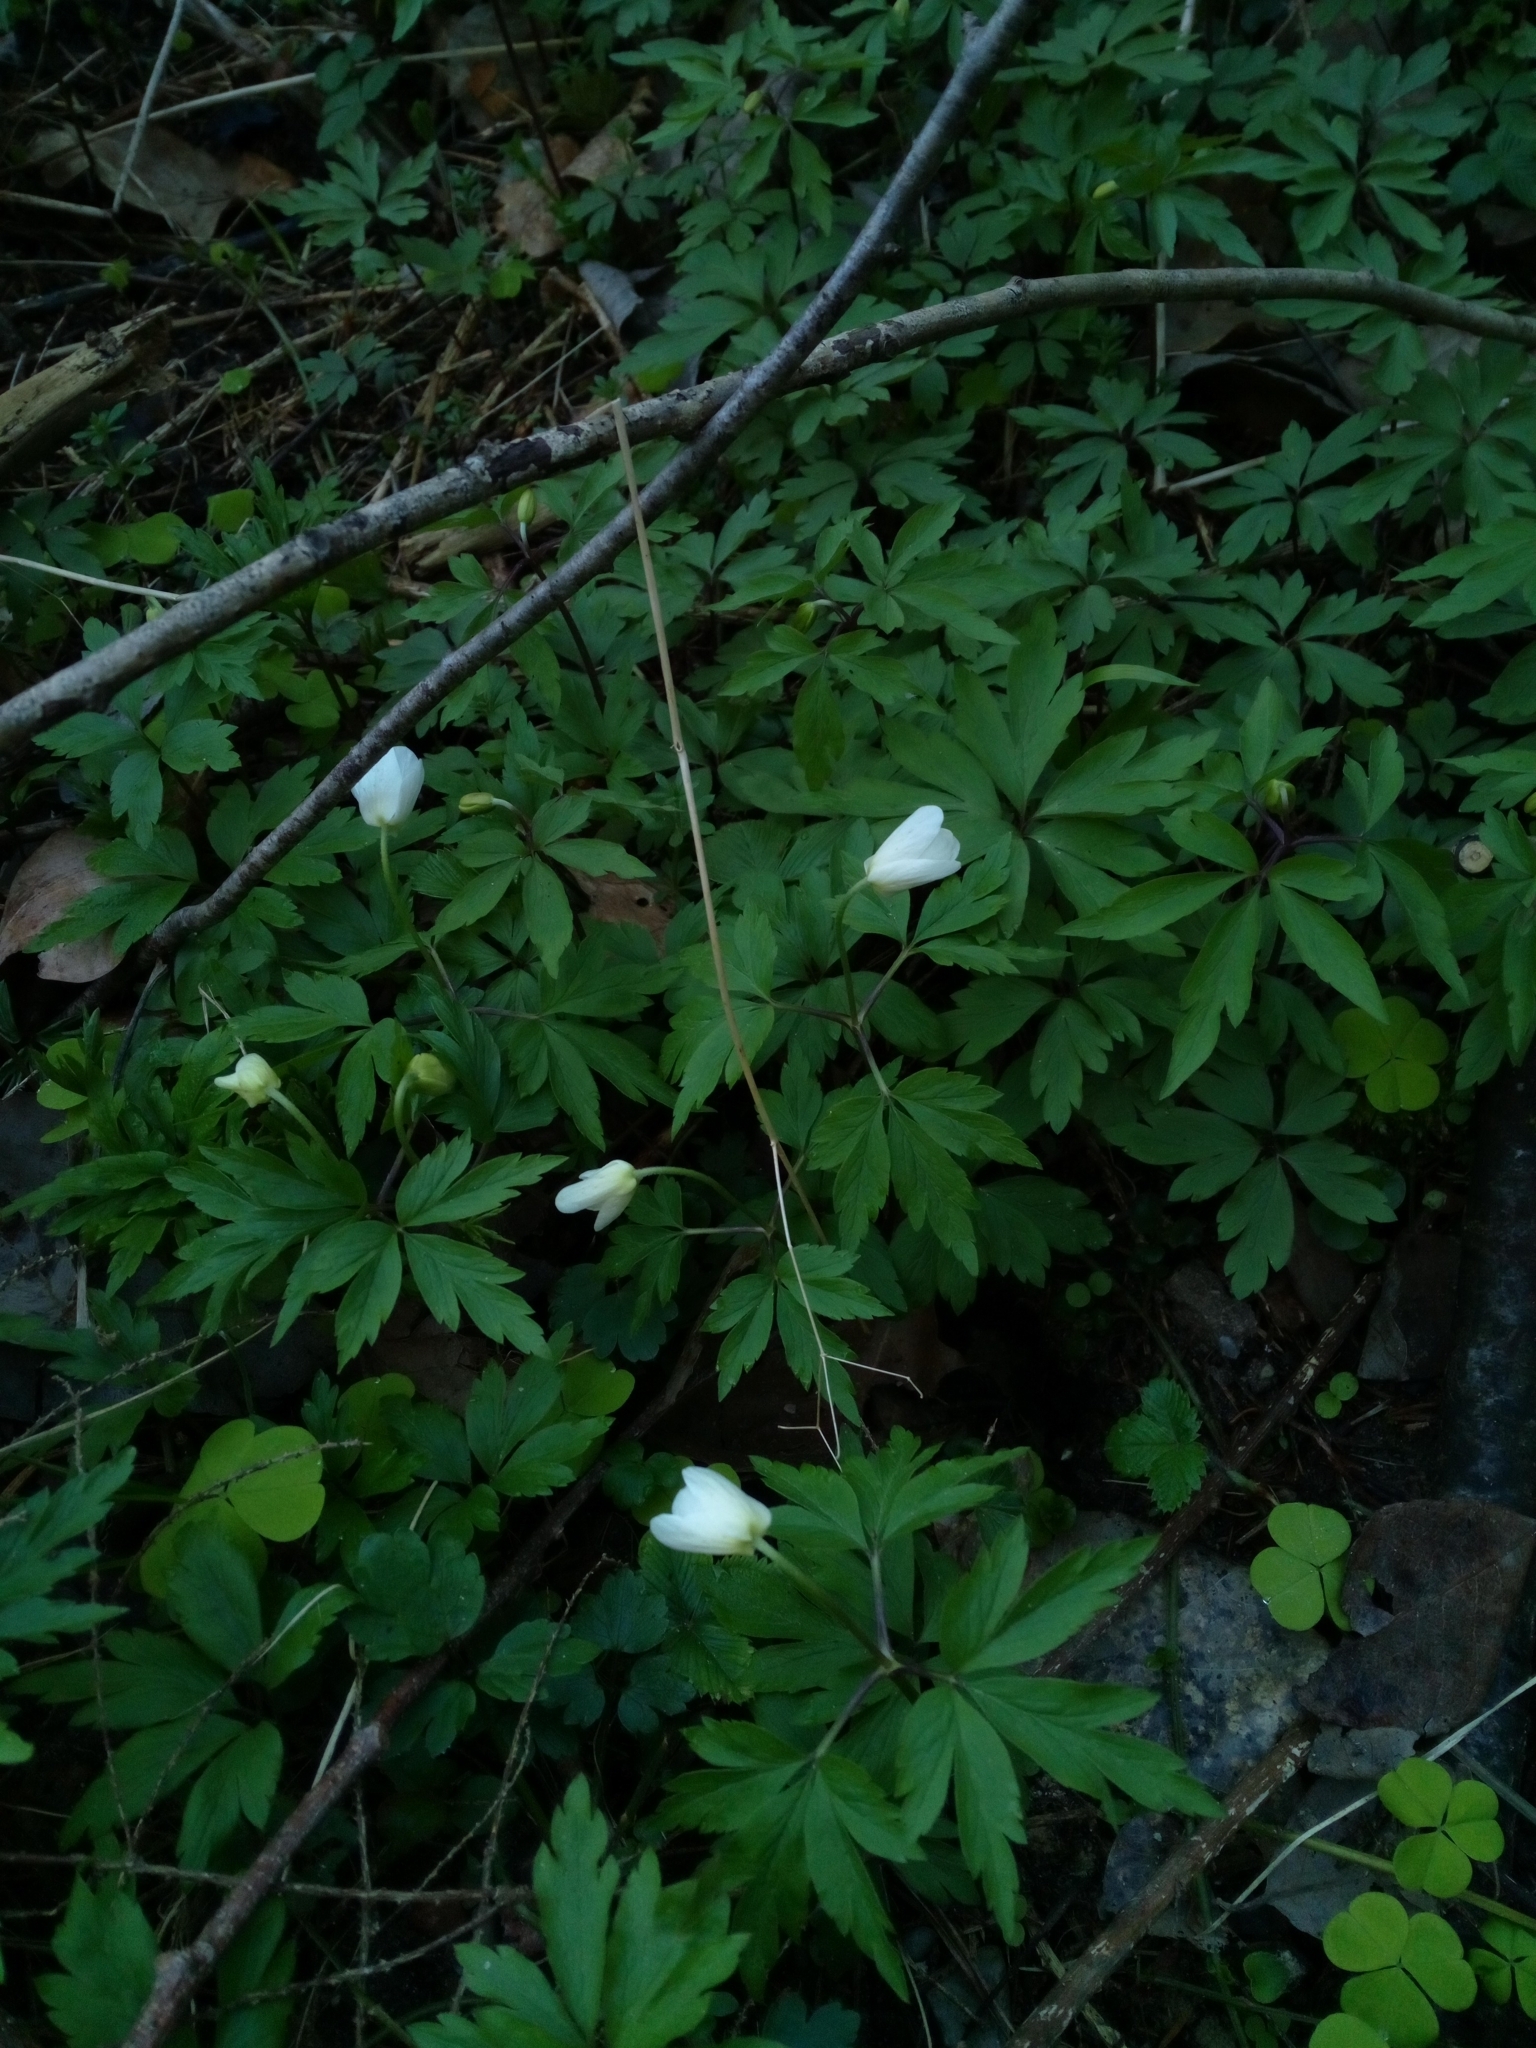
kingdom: Plantae
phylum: Tracheophyta
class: Magnoliopsida
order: Ranunculales
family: Ranunculaceae
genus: Anemone
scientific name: Anemone nemorosa
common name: Wood anemone
